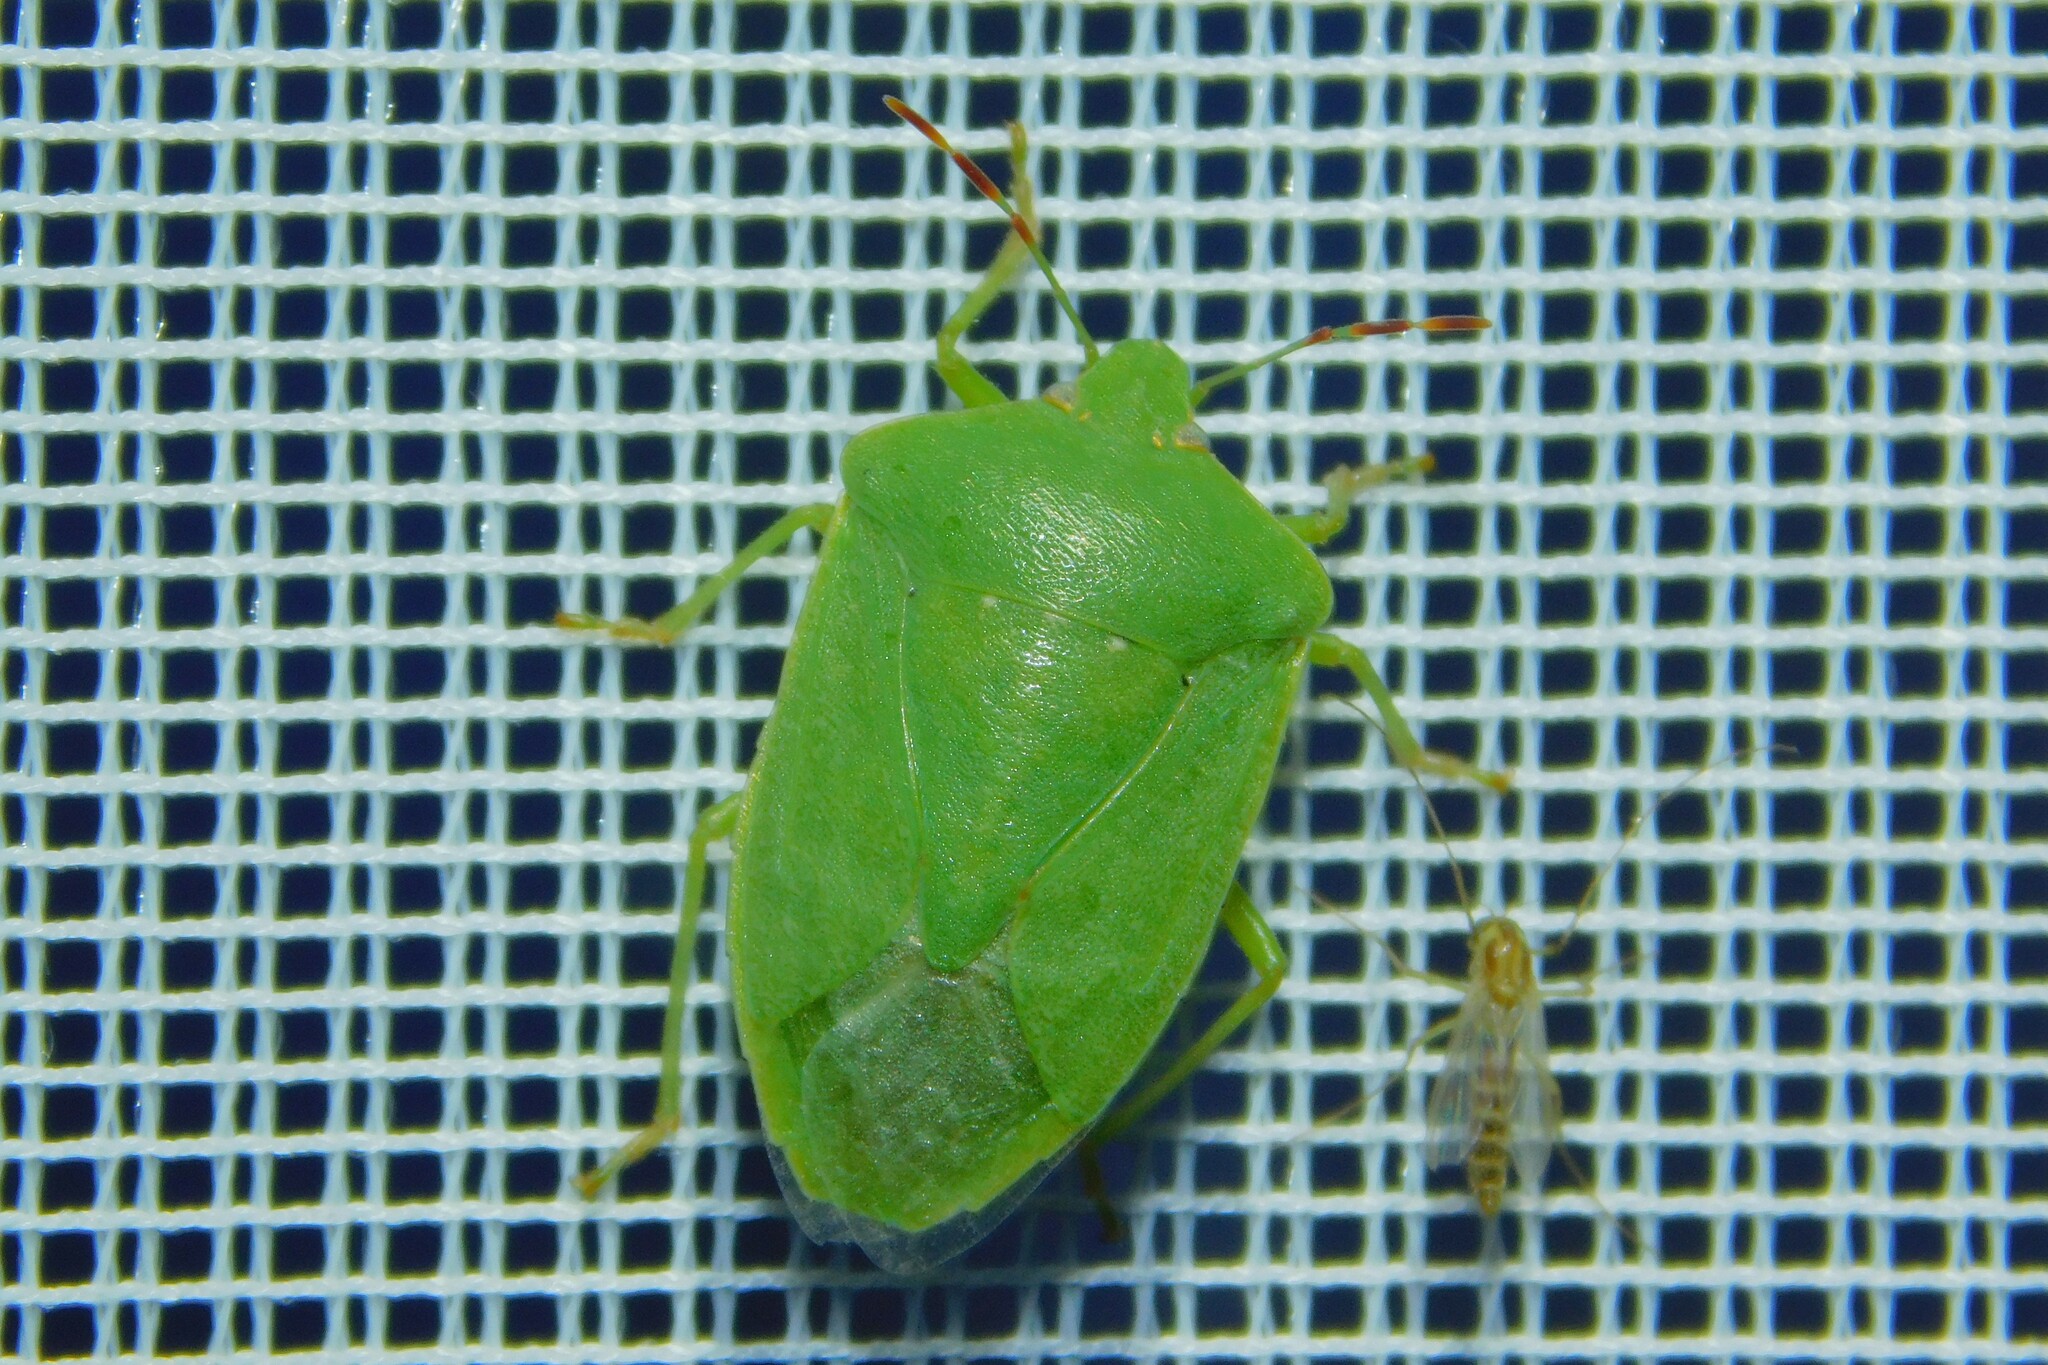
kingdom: Animalia
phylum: Arthropoda
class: Insecta
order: Hemiptera
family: Pentatomidae
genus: Nezara
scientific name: Nezara viridula
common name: Southern green stink bug
